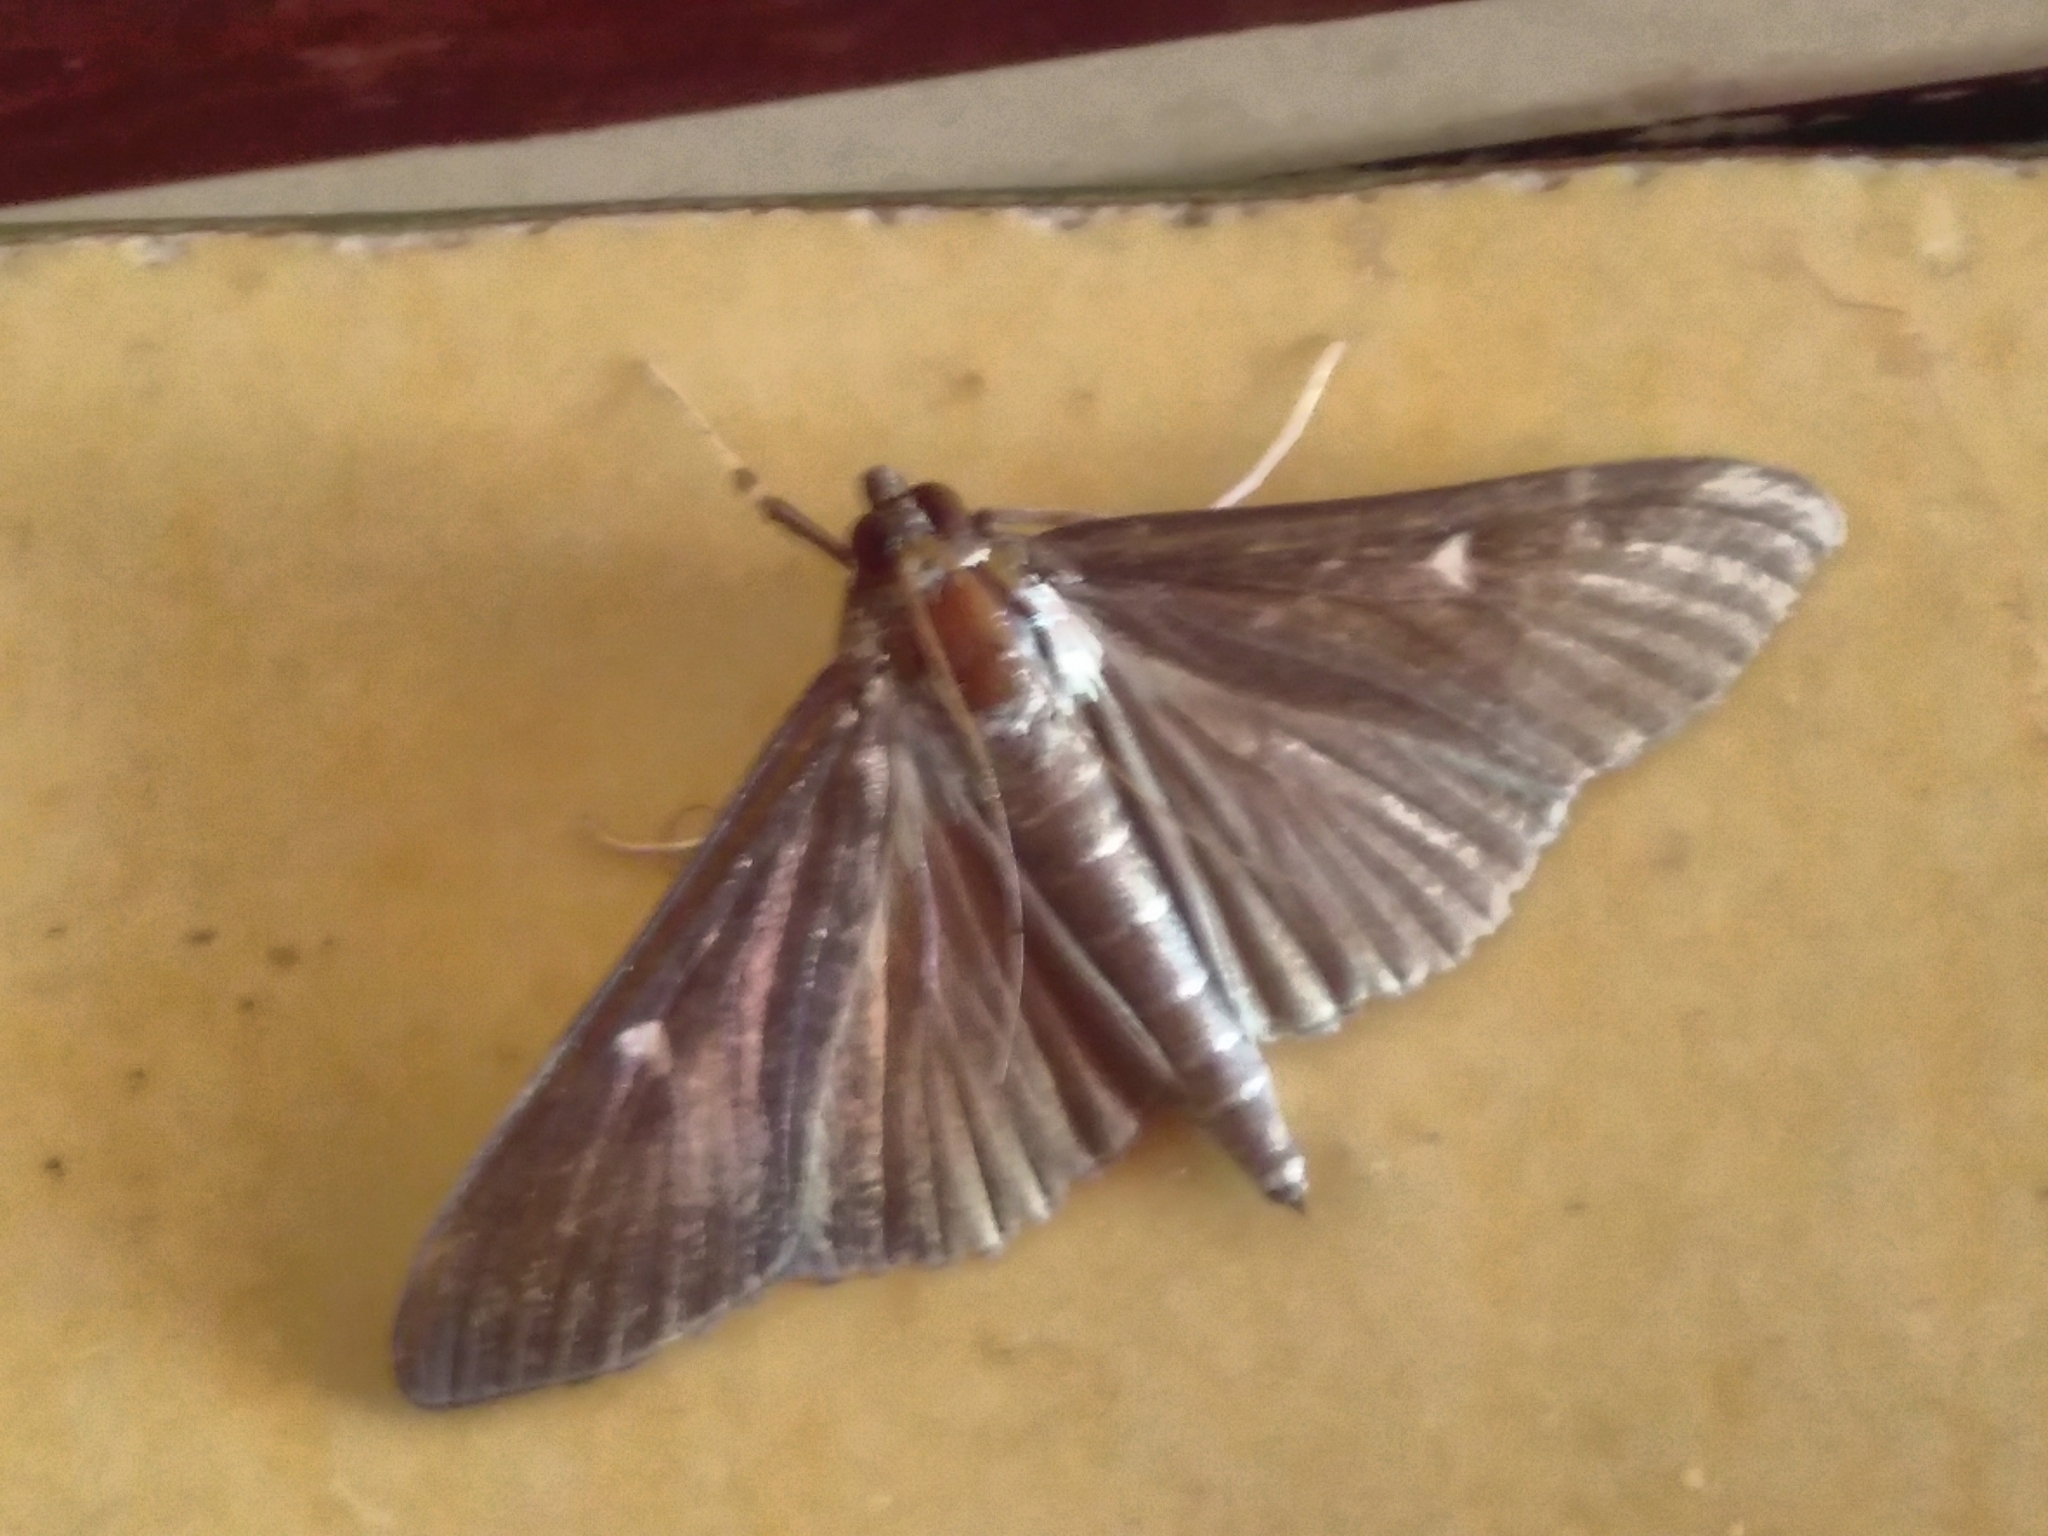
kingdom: Animalia
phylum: Arthropoda
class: Insecta
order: Lepidoptera
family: Crambidae
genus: Cydalima
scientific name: Cydalima perspectalis
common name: Box tree moth
